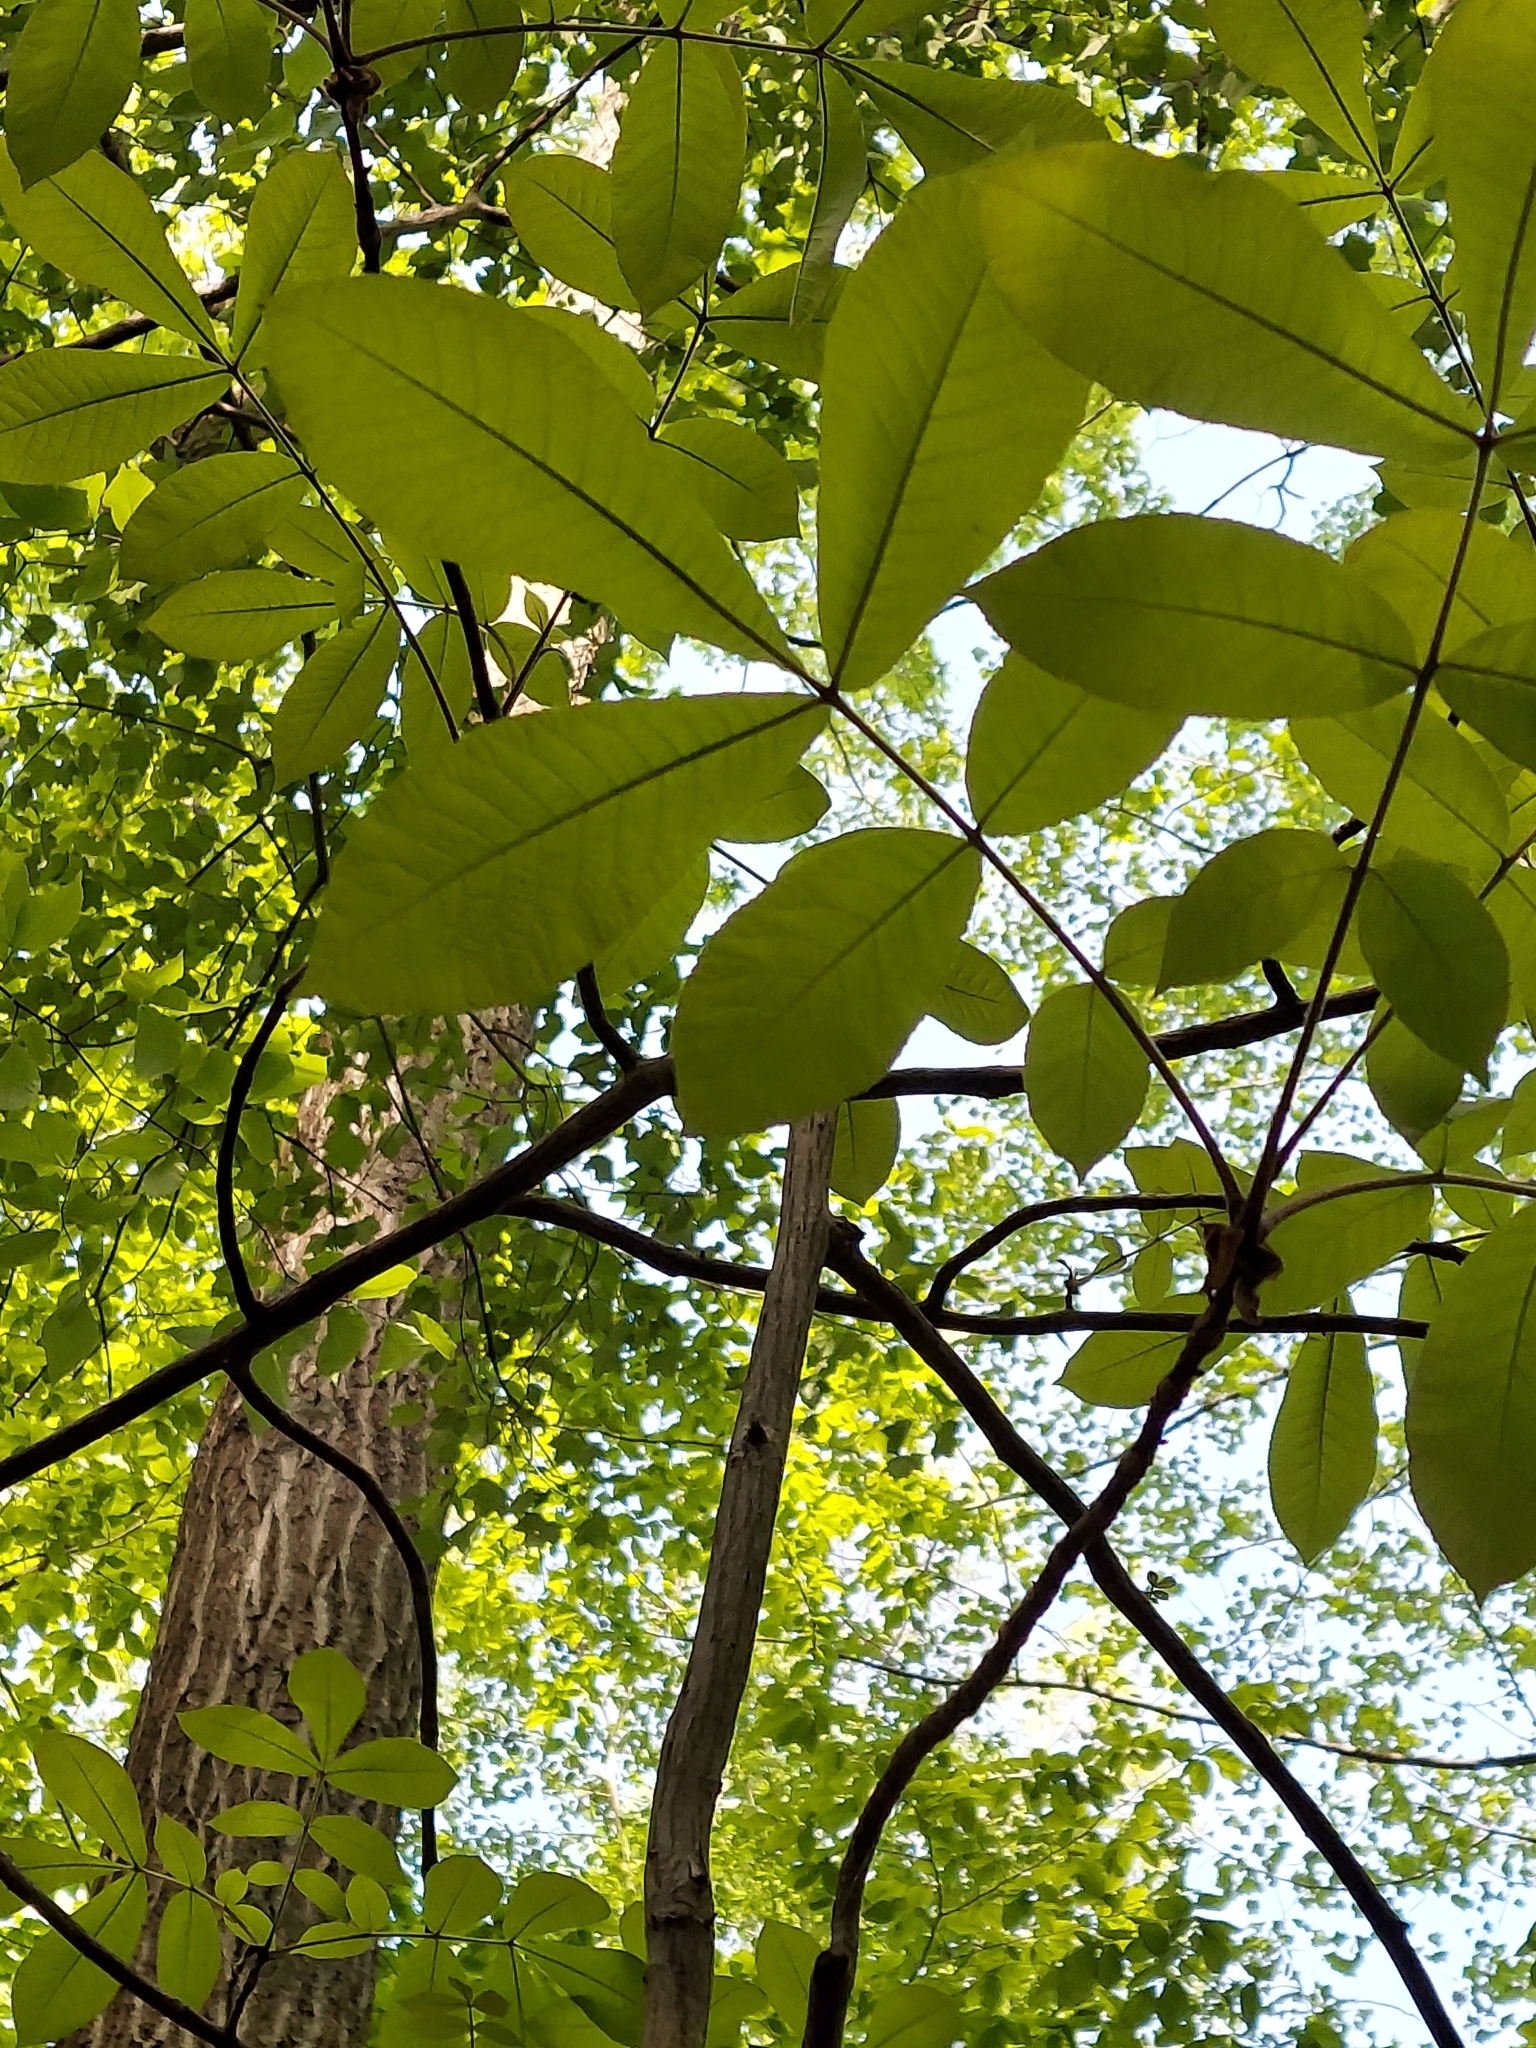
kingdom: Plantae
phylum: Tracheophyta
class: Magnoliopsida
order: Fagales
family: Juglandaceae
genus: Carya
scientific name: Carya alba
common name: Mockernut hickory
